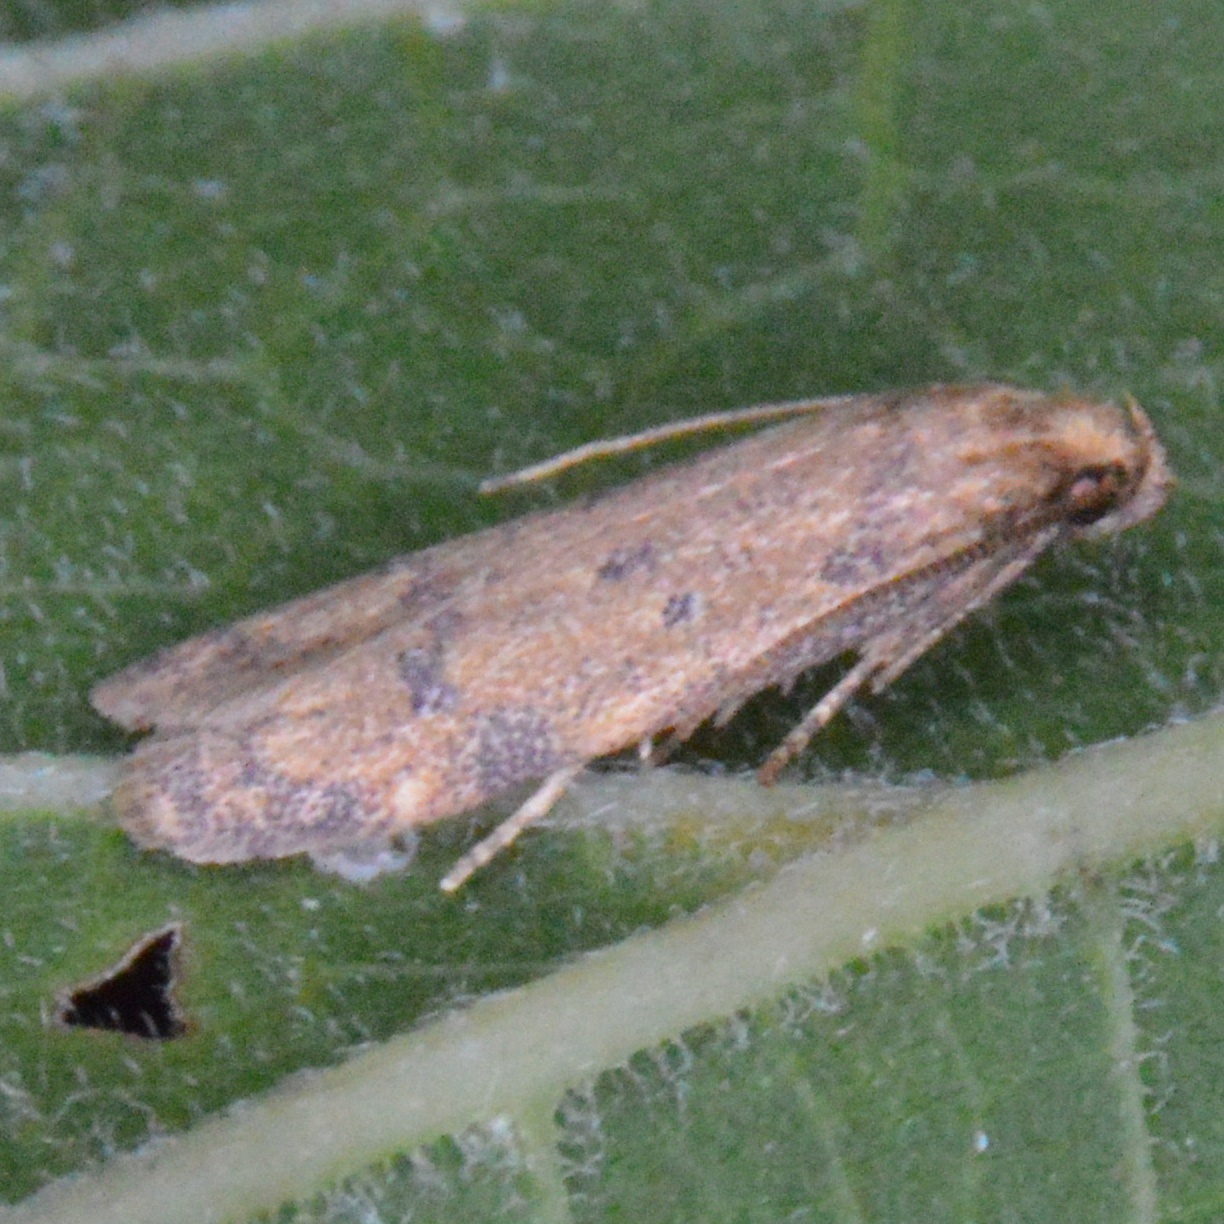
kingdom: Animalia
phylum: Arthropoda
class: Insecta
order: Lepidoptera
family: Autostichidae
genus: Gerdana
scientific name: Gerdana caritella
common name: Gerdana moth
